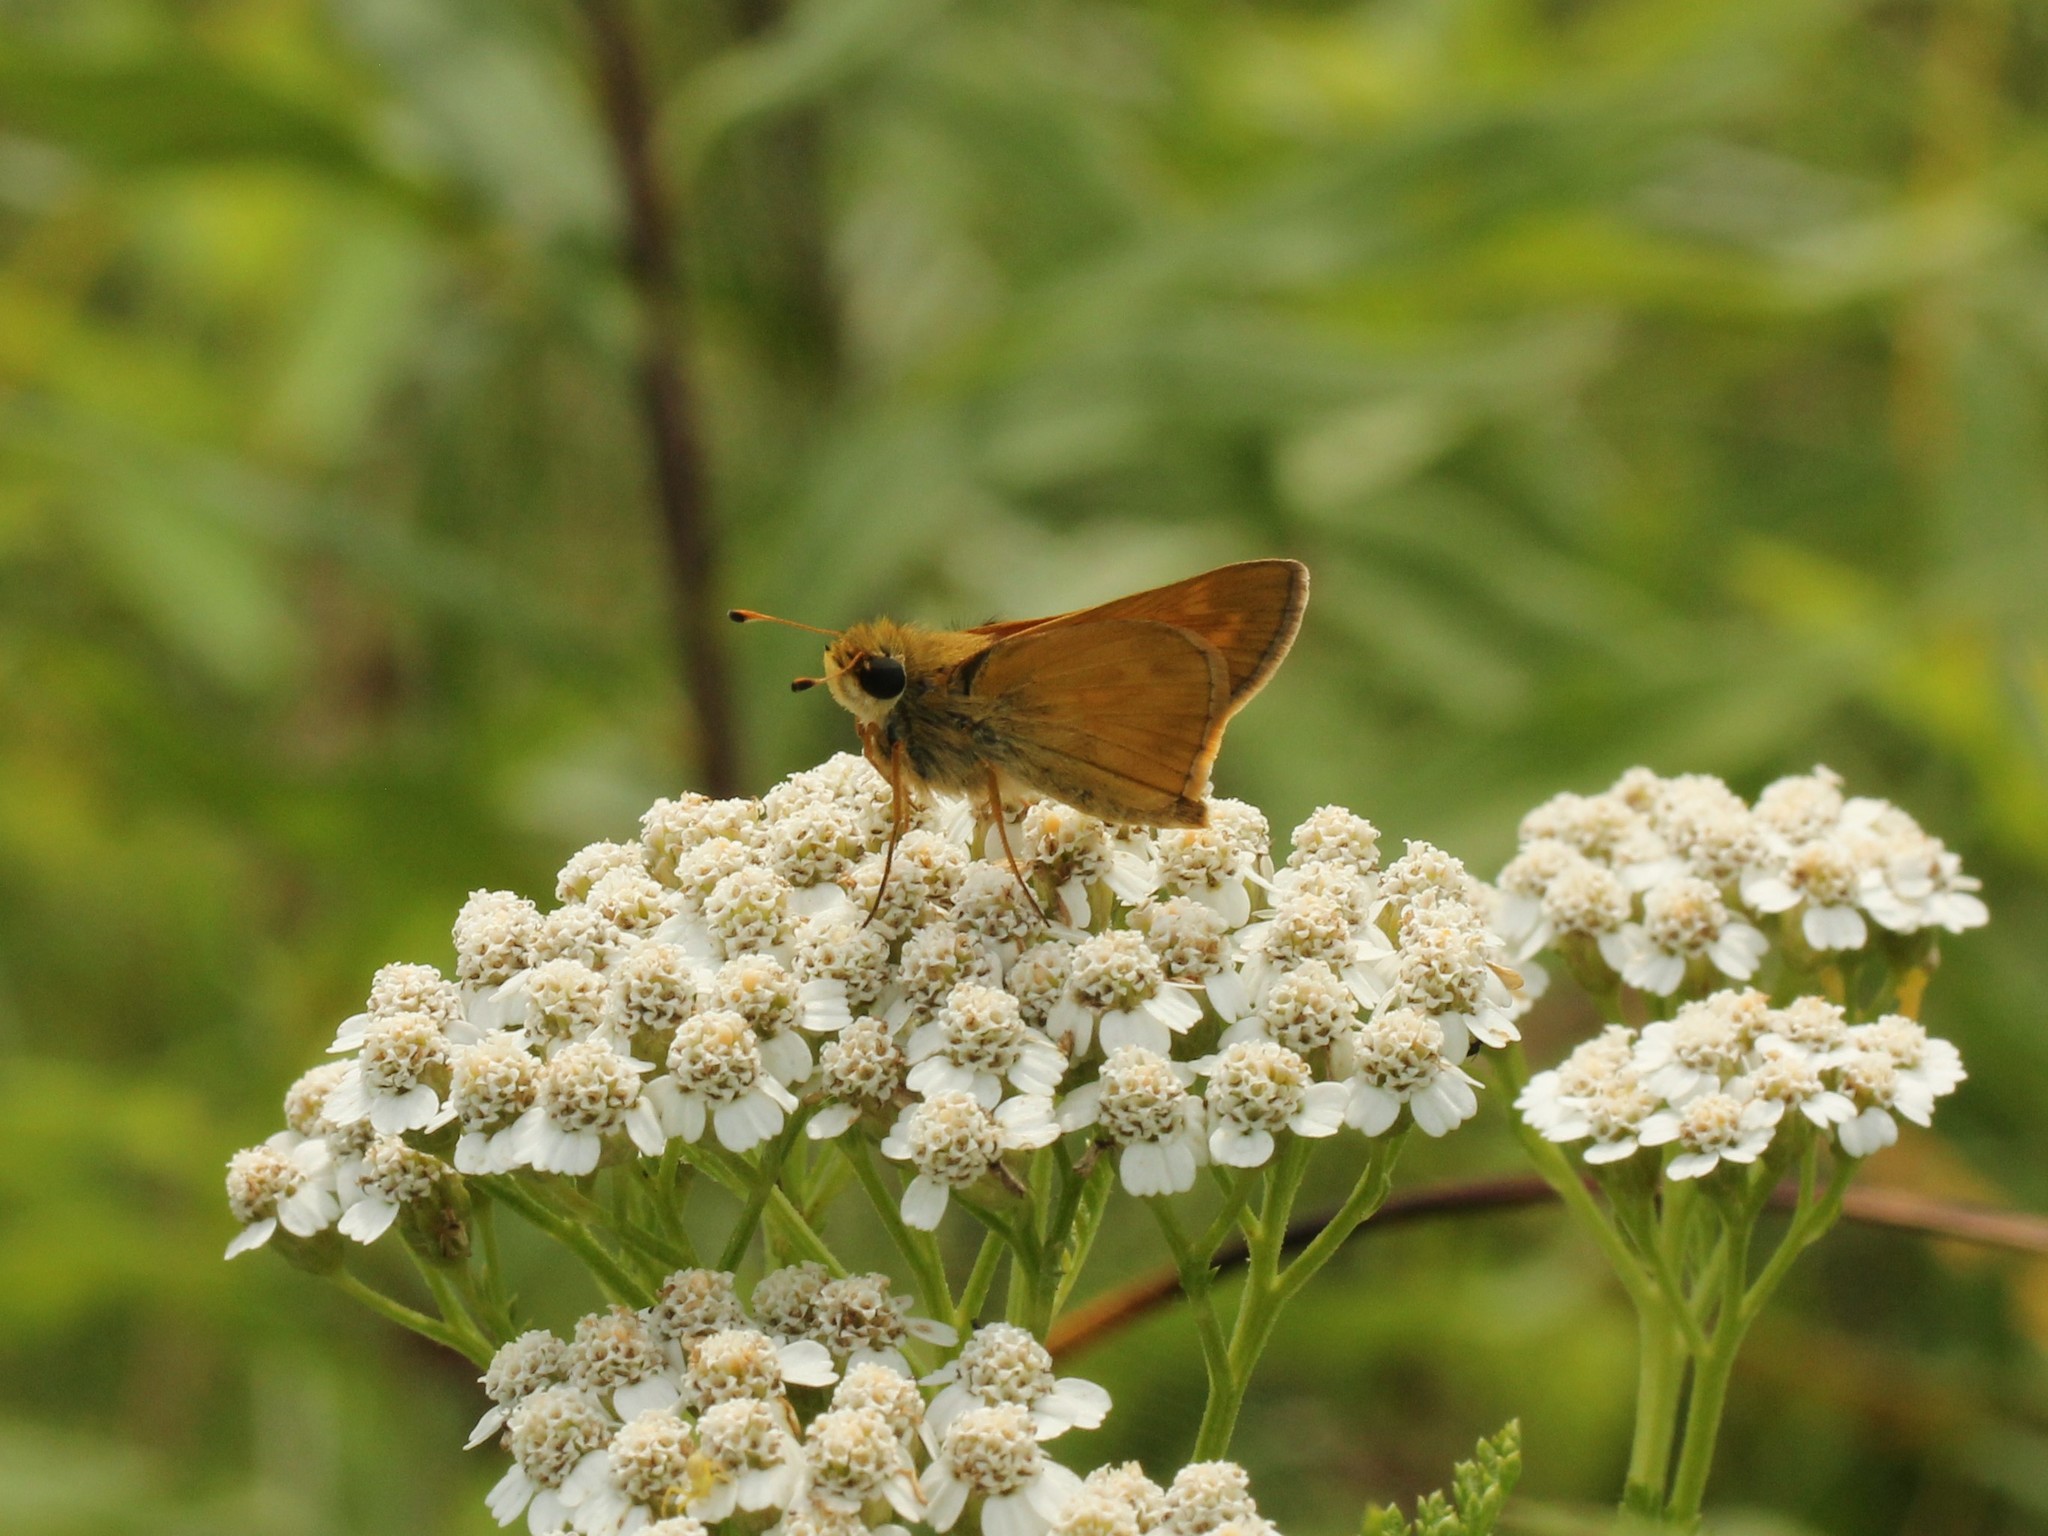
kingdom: Animalia
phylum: Arthropoda
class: Insecta
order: Lepidoptera
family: Hesperiidae
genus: Atalopedes
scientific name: Atalopedes
